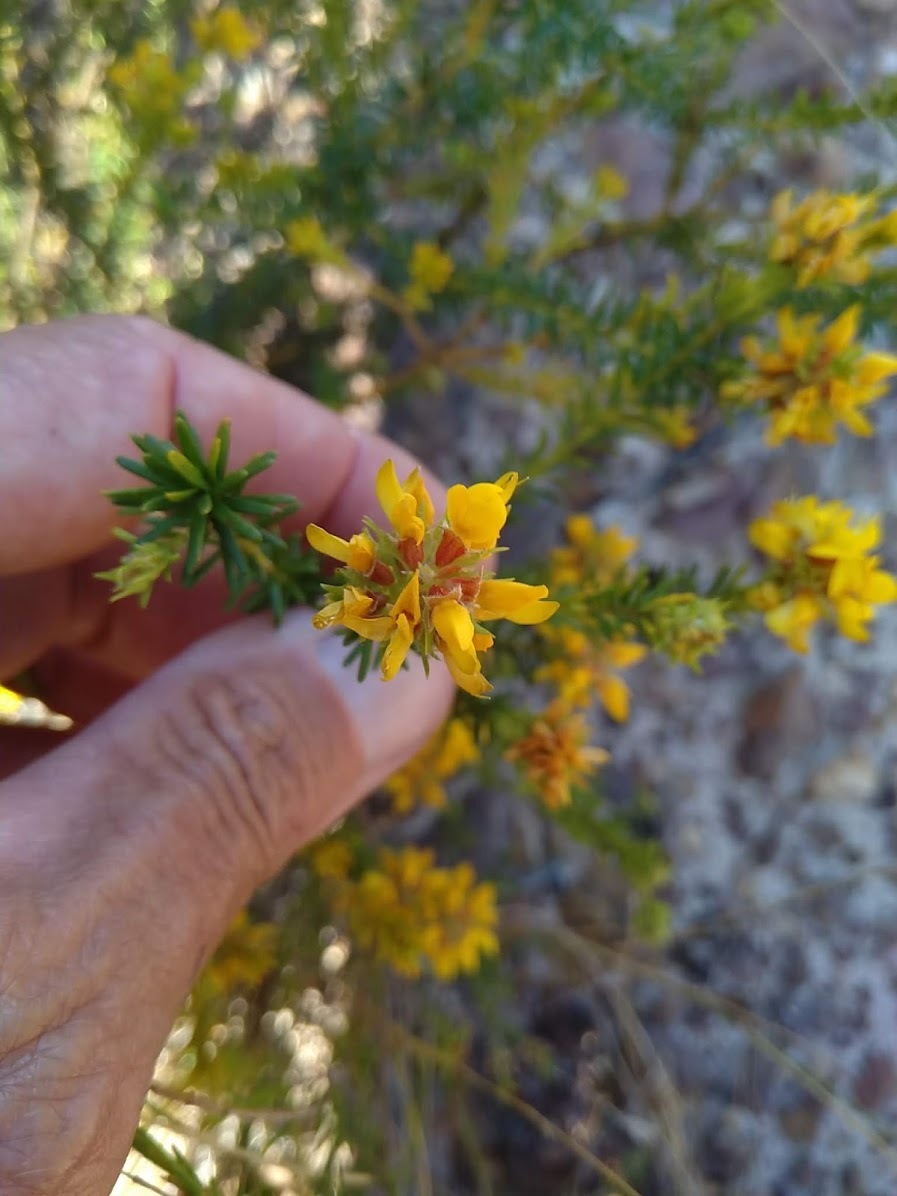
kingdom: Plantae
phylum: Tracheophyta
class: Magnoliopsida
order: Fabales
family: Fabaceae
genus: Phyllota
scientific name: Phyllota phylicoides
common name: Heath phyllota
